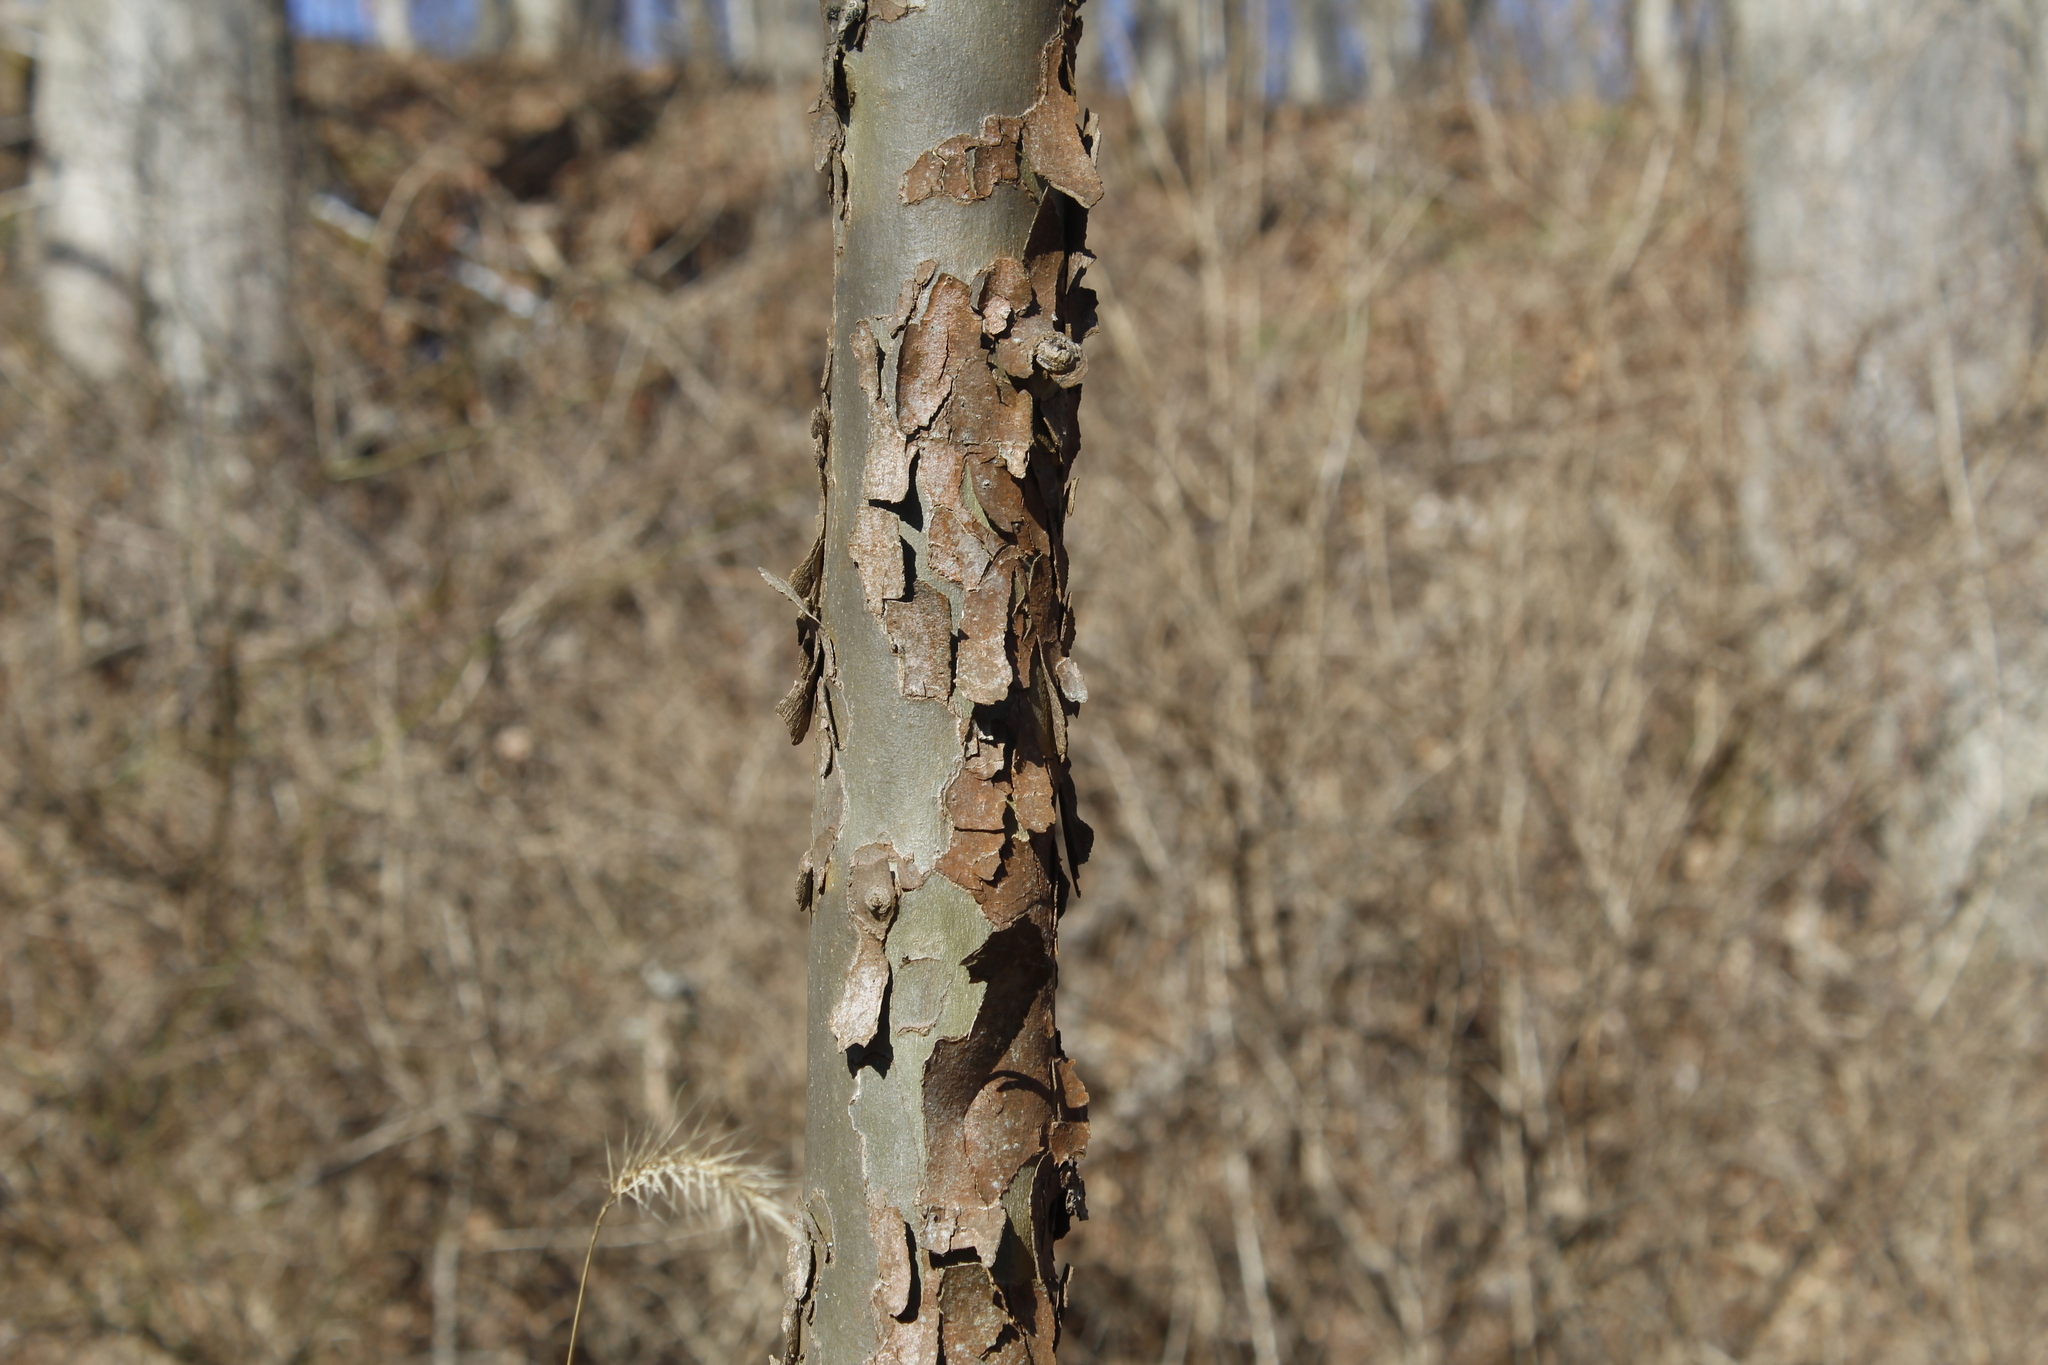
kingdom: Plantae
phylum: Tracheophyta
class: Magnoliopsida
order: Proteales
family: Platanaceae
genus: Platanus
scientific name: Platanus occidentalis
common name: American sycamore
